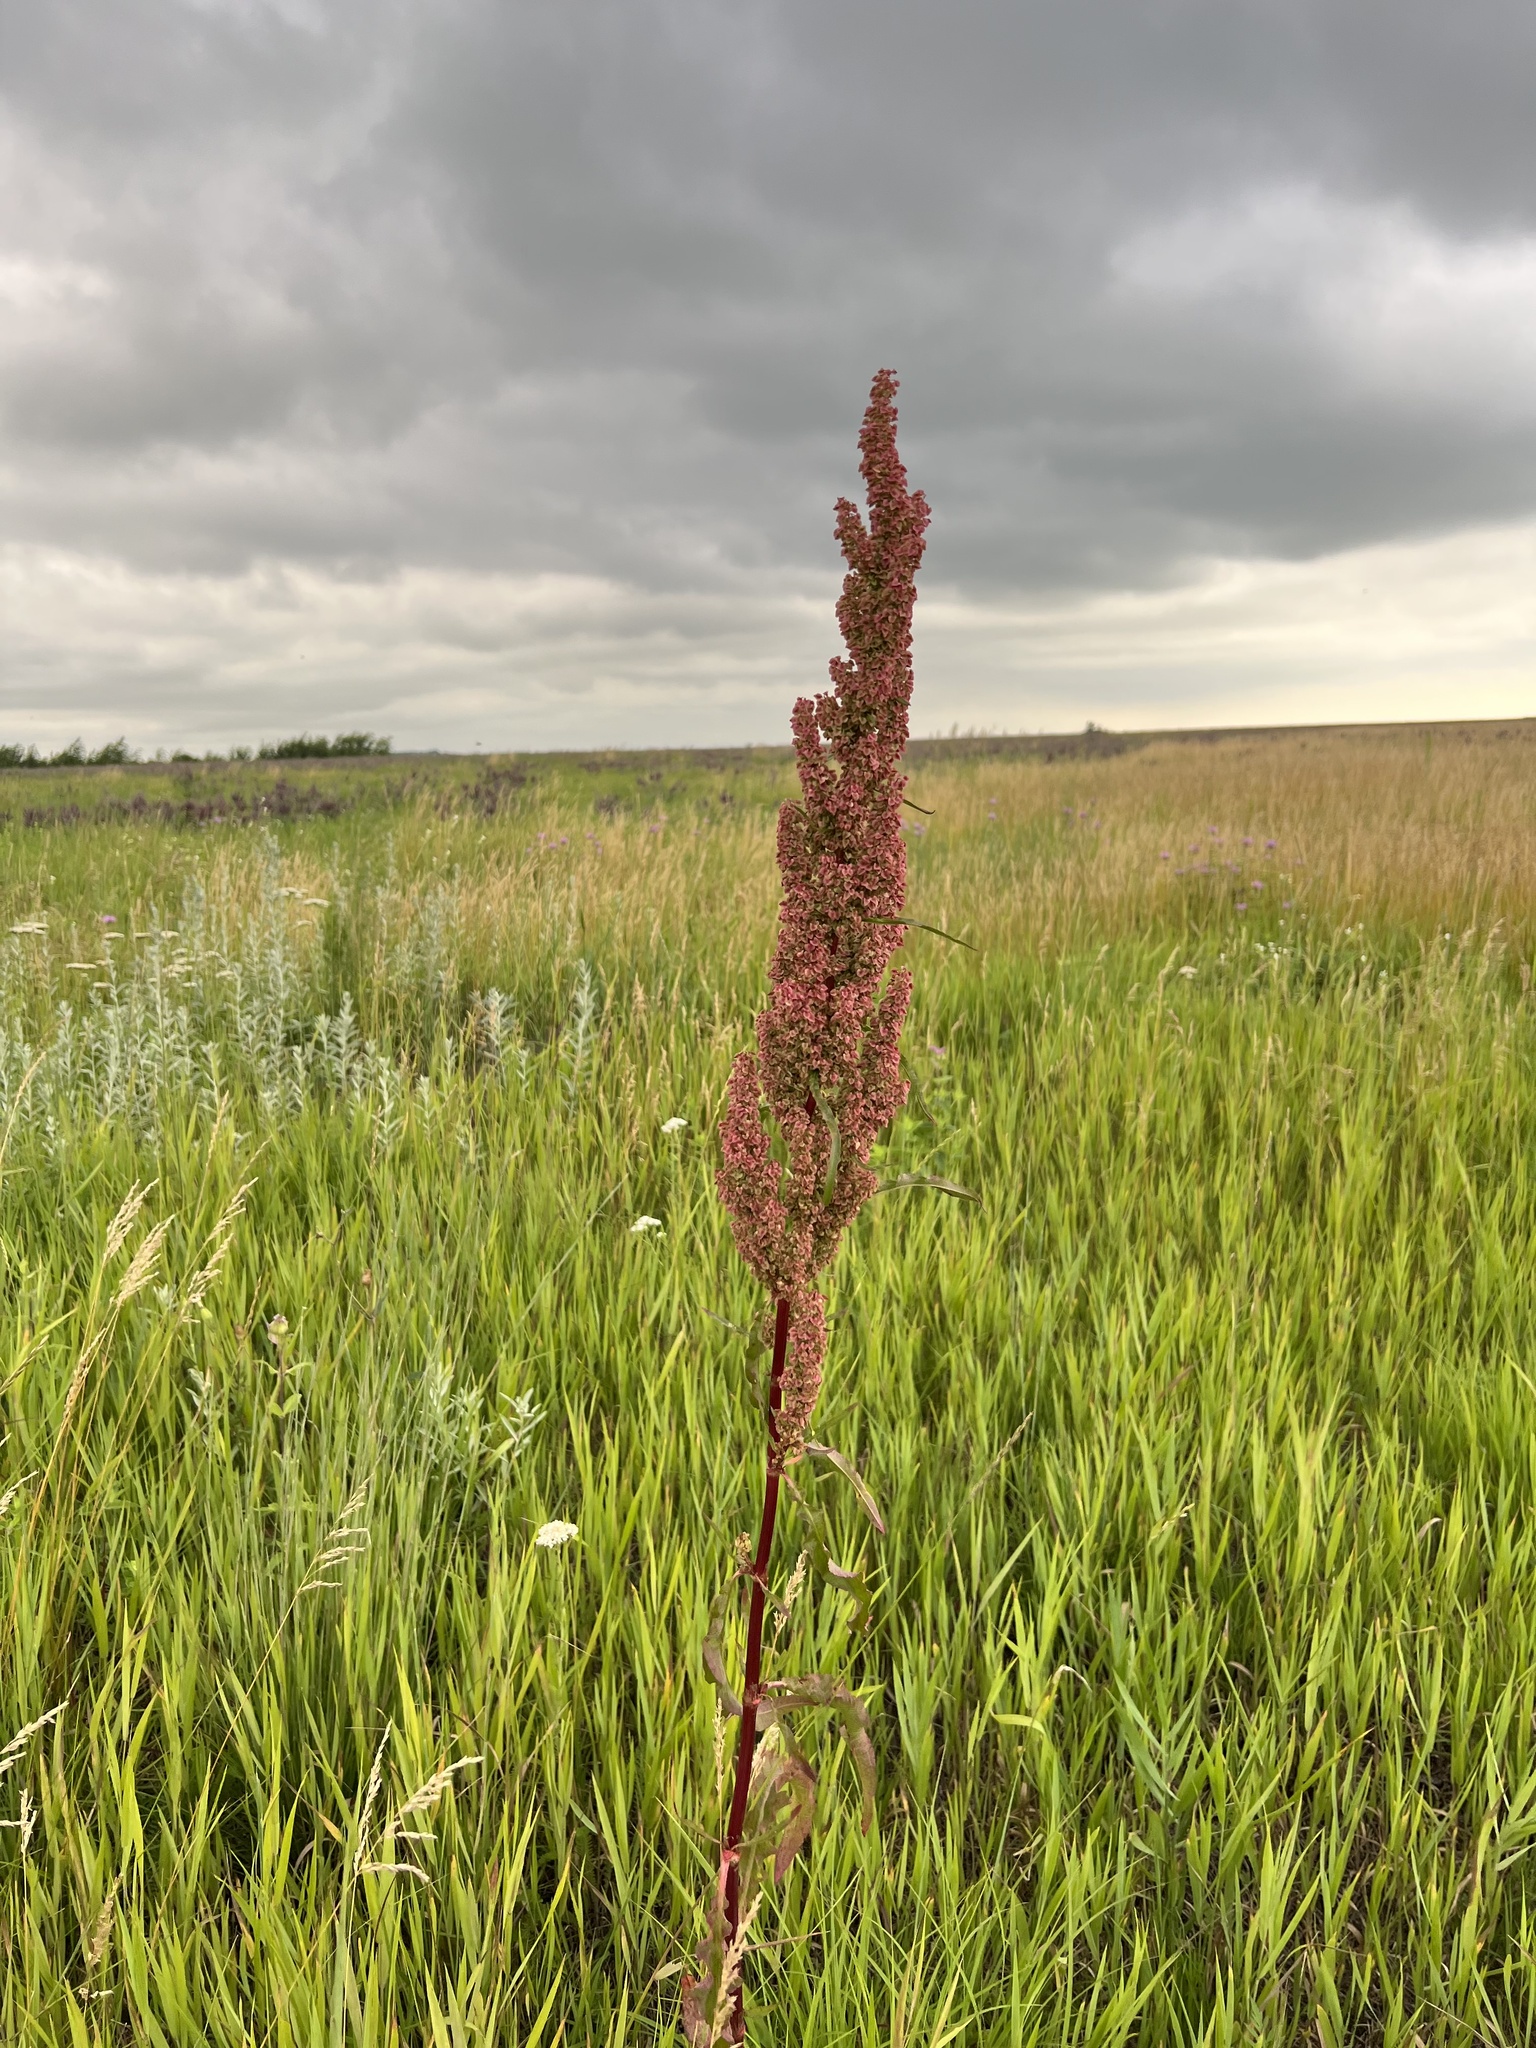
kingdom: Plantae
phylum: Tracheophyta
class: Magnoliopsida
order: Caryophyllales
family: Polygonaceae
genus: Rumex
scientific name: Rumex crispus
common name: Curled dock
